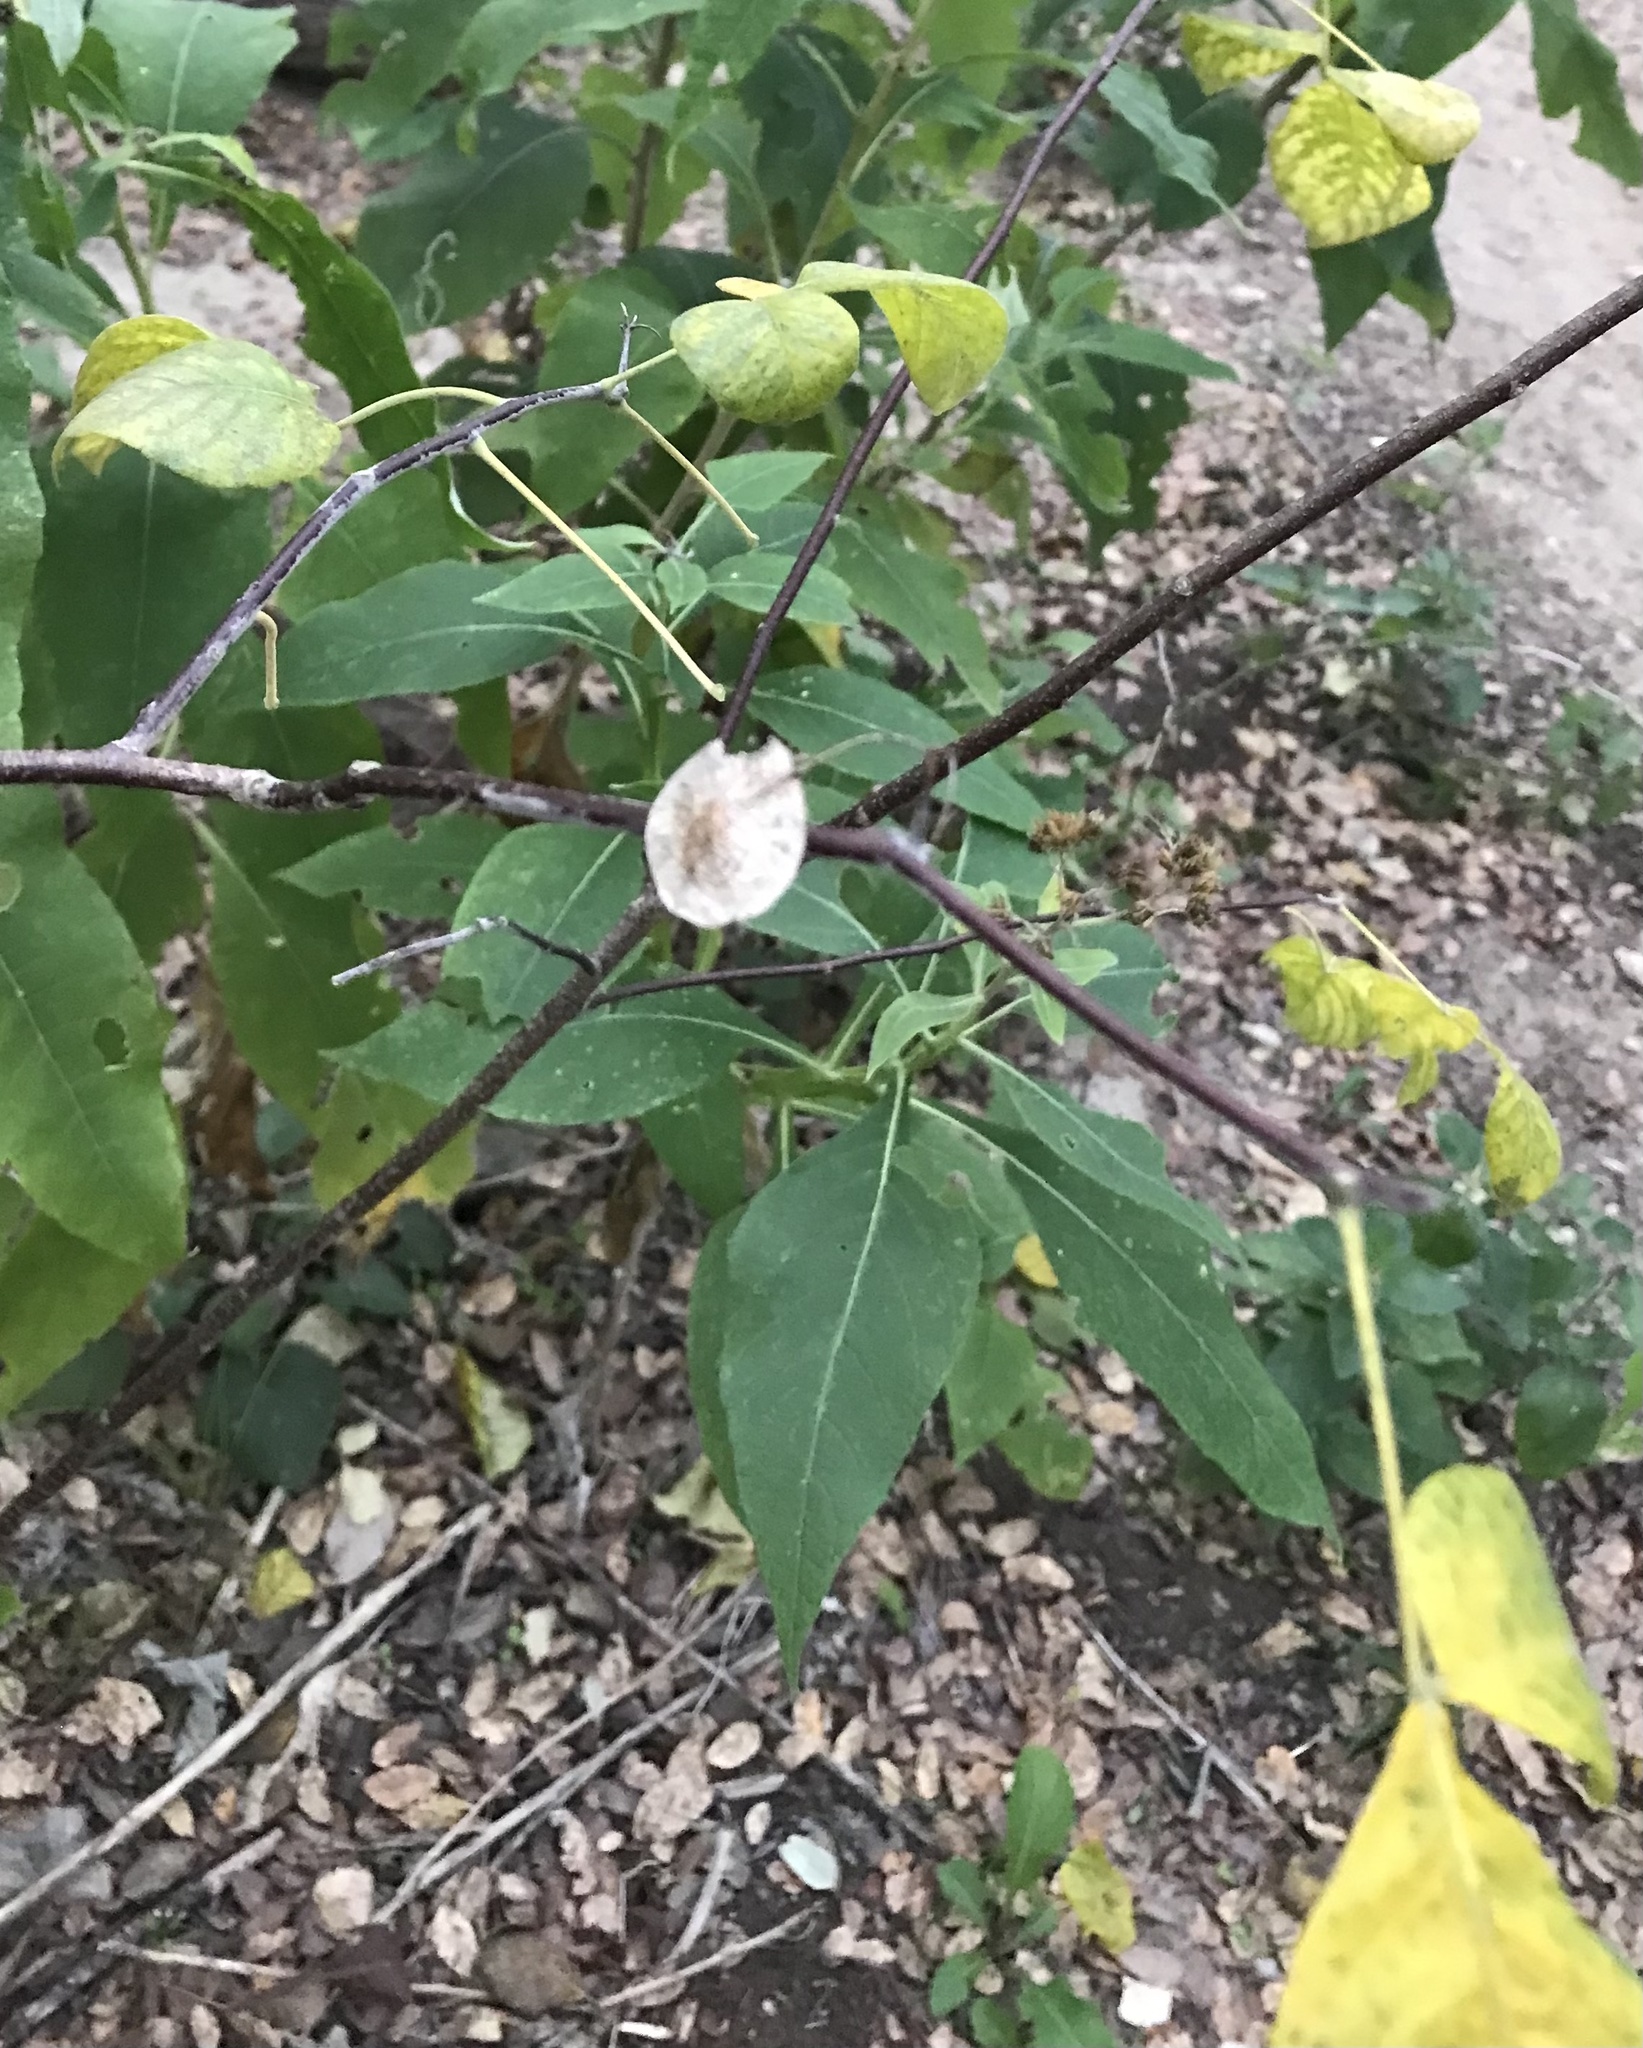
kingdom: Plantae
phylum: Tracheophyta
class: Magnoliopsida
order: Sapindales
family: Rutaceae
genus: Ptelea
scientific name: Ptelea trifoliata
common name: Common hop-tree
